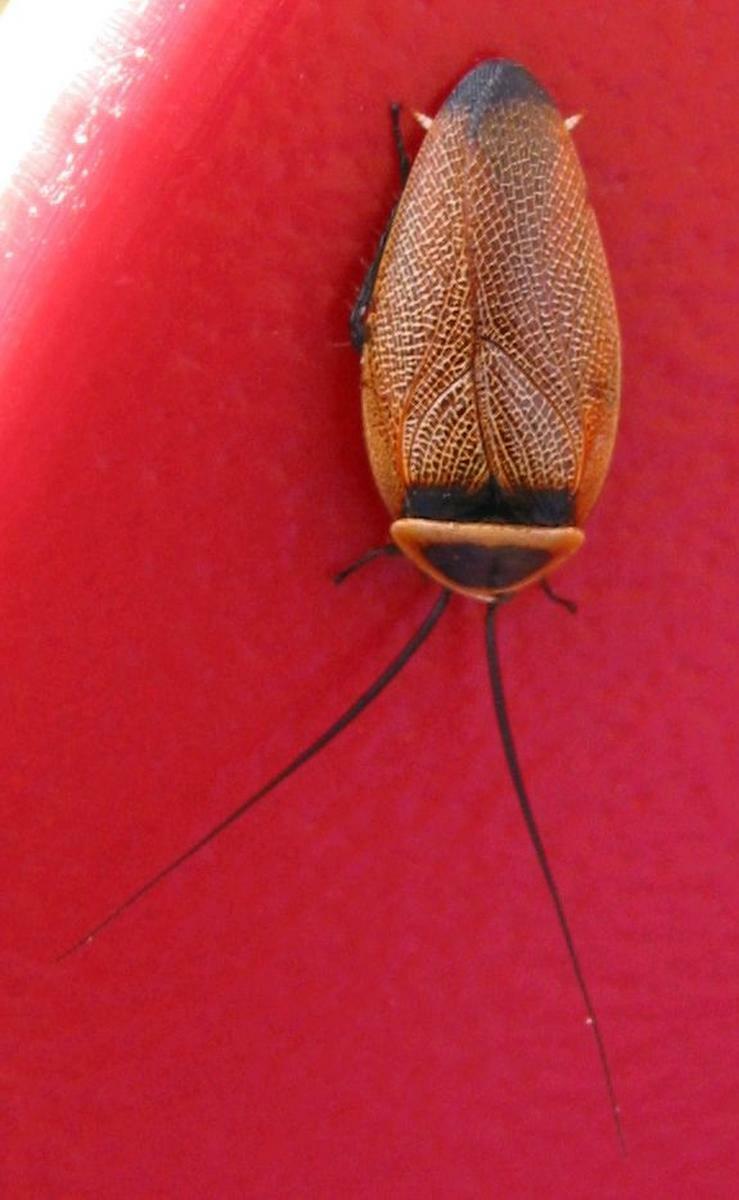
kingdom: Animalia
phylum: Arthropoda
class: Insecta
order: Blattodea
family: Ectobiidae
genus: Ellipsidion
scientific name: Ellipsidion australe
